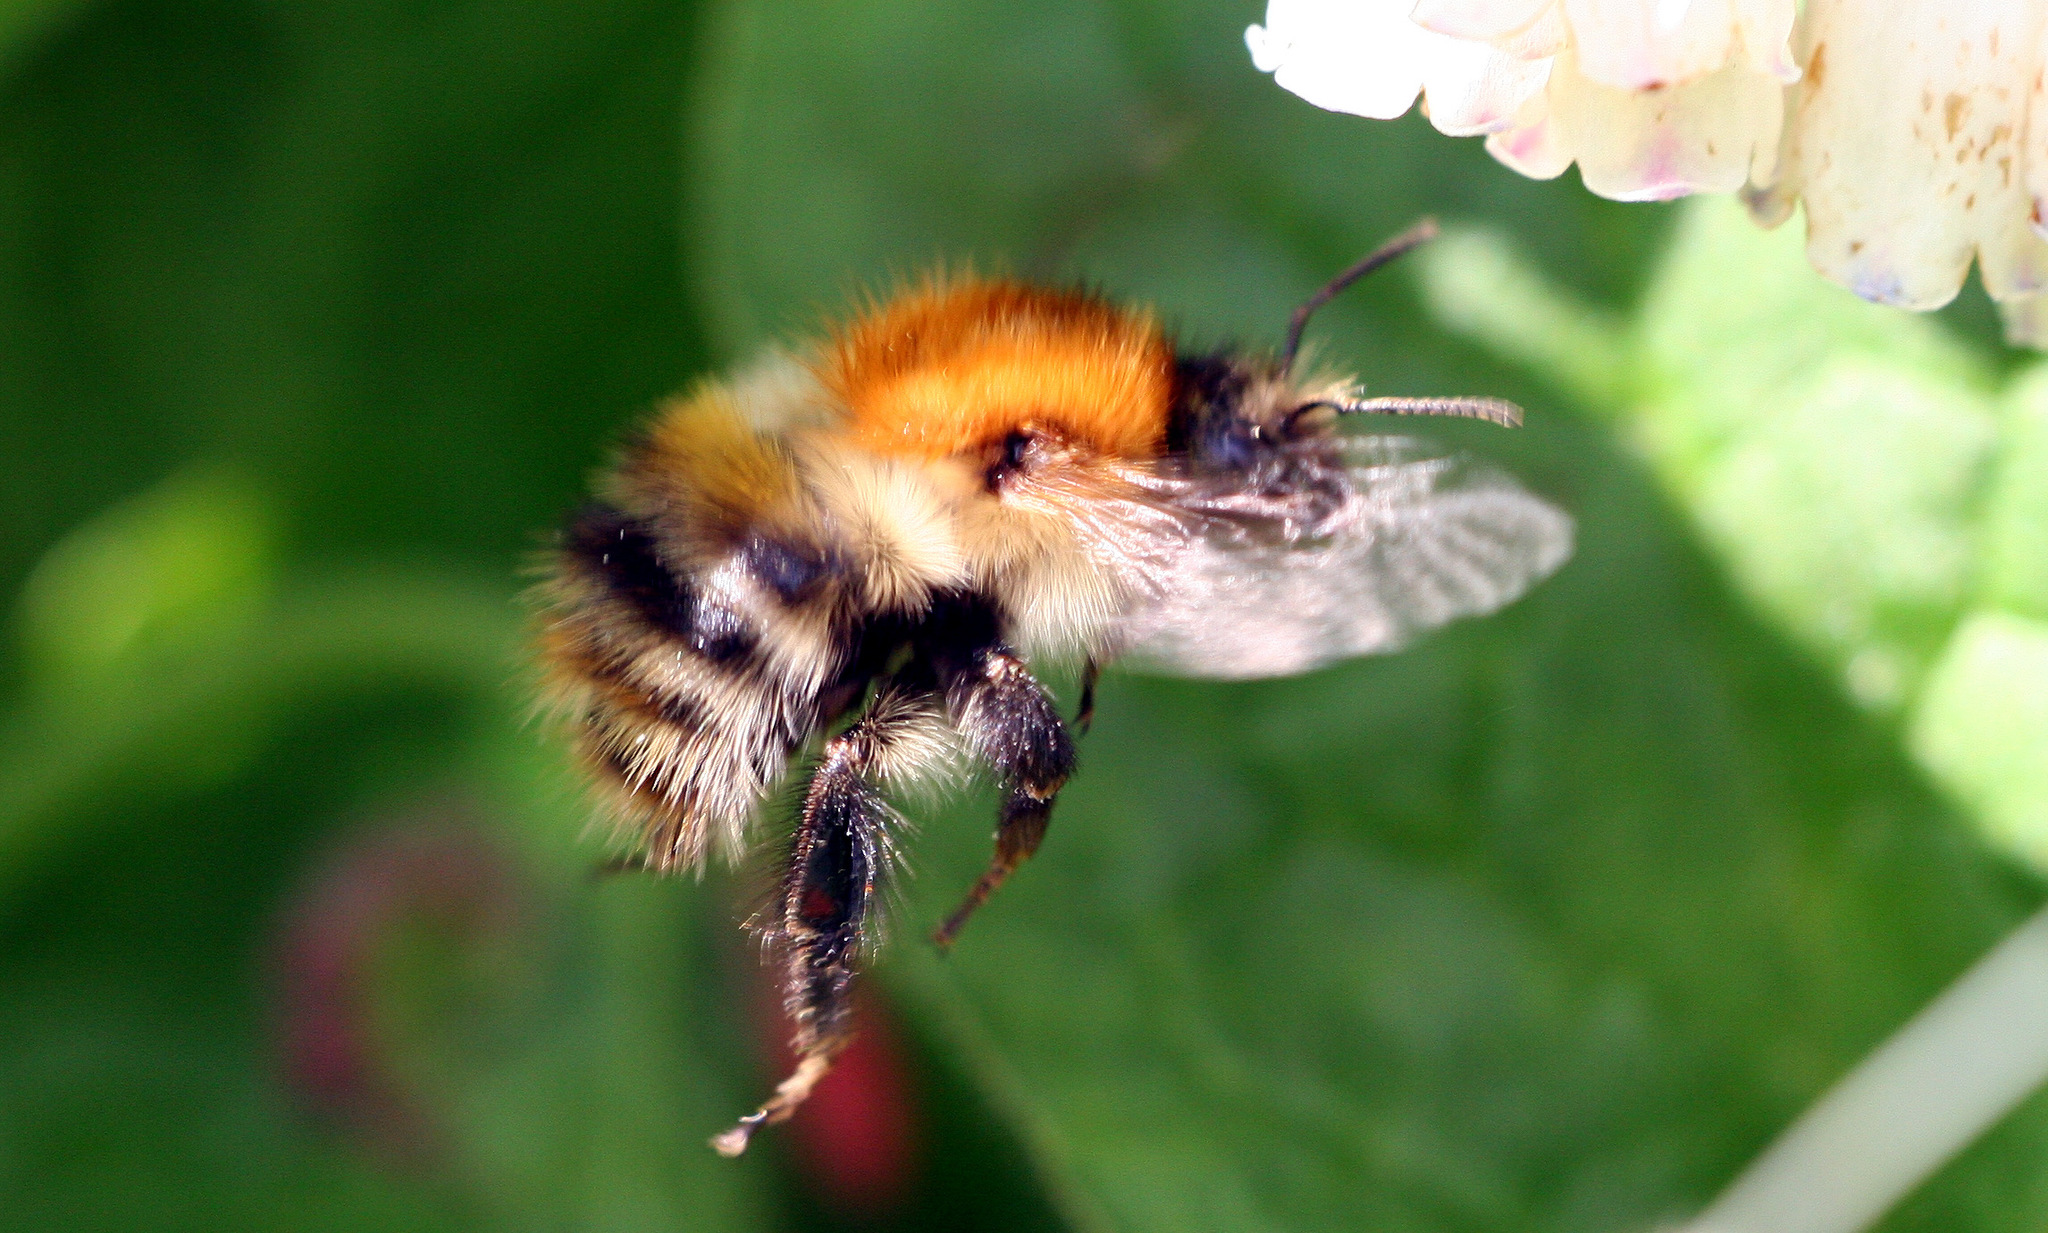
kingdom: Animalia
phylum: Arthropoda
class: Insecta
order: Hymenoptera
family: Apidae
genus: Bombus
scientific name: Bombus pascuorum
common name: Common carder bee
